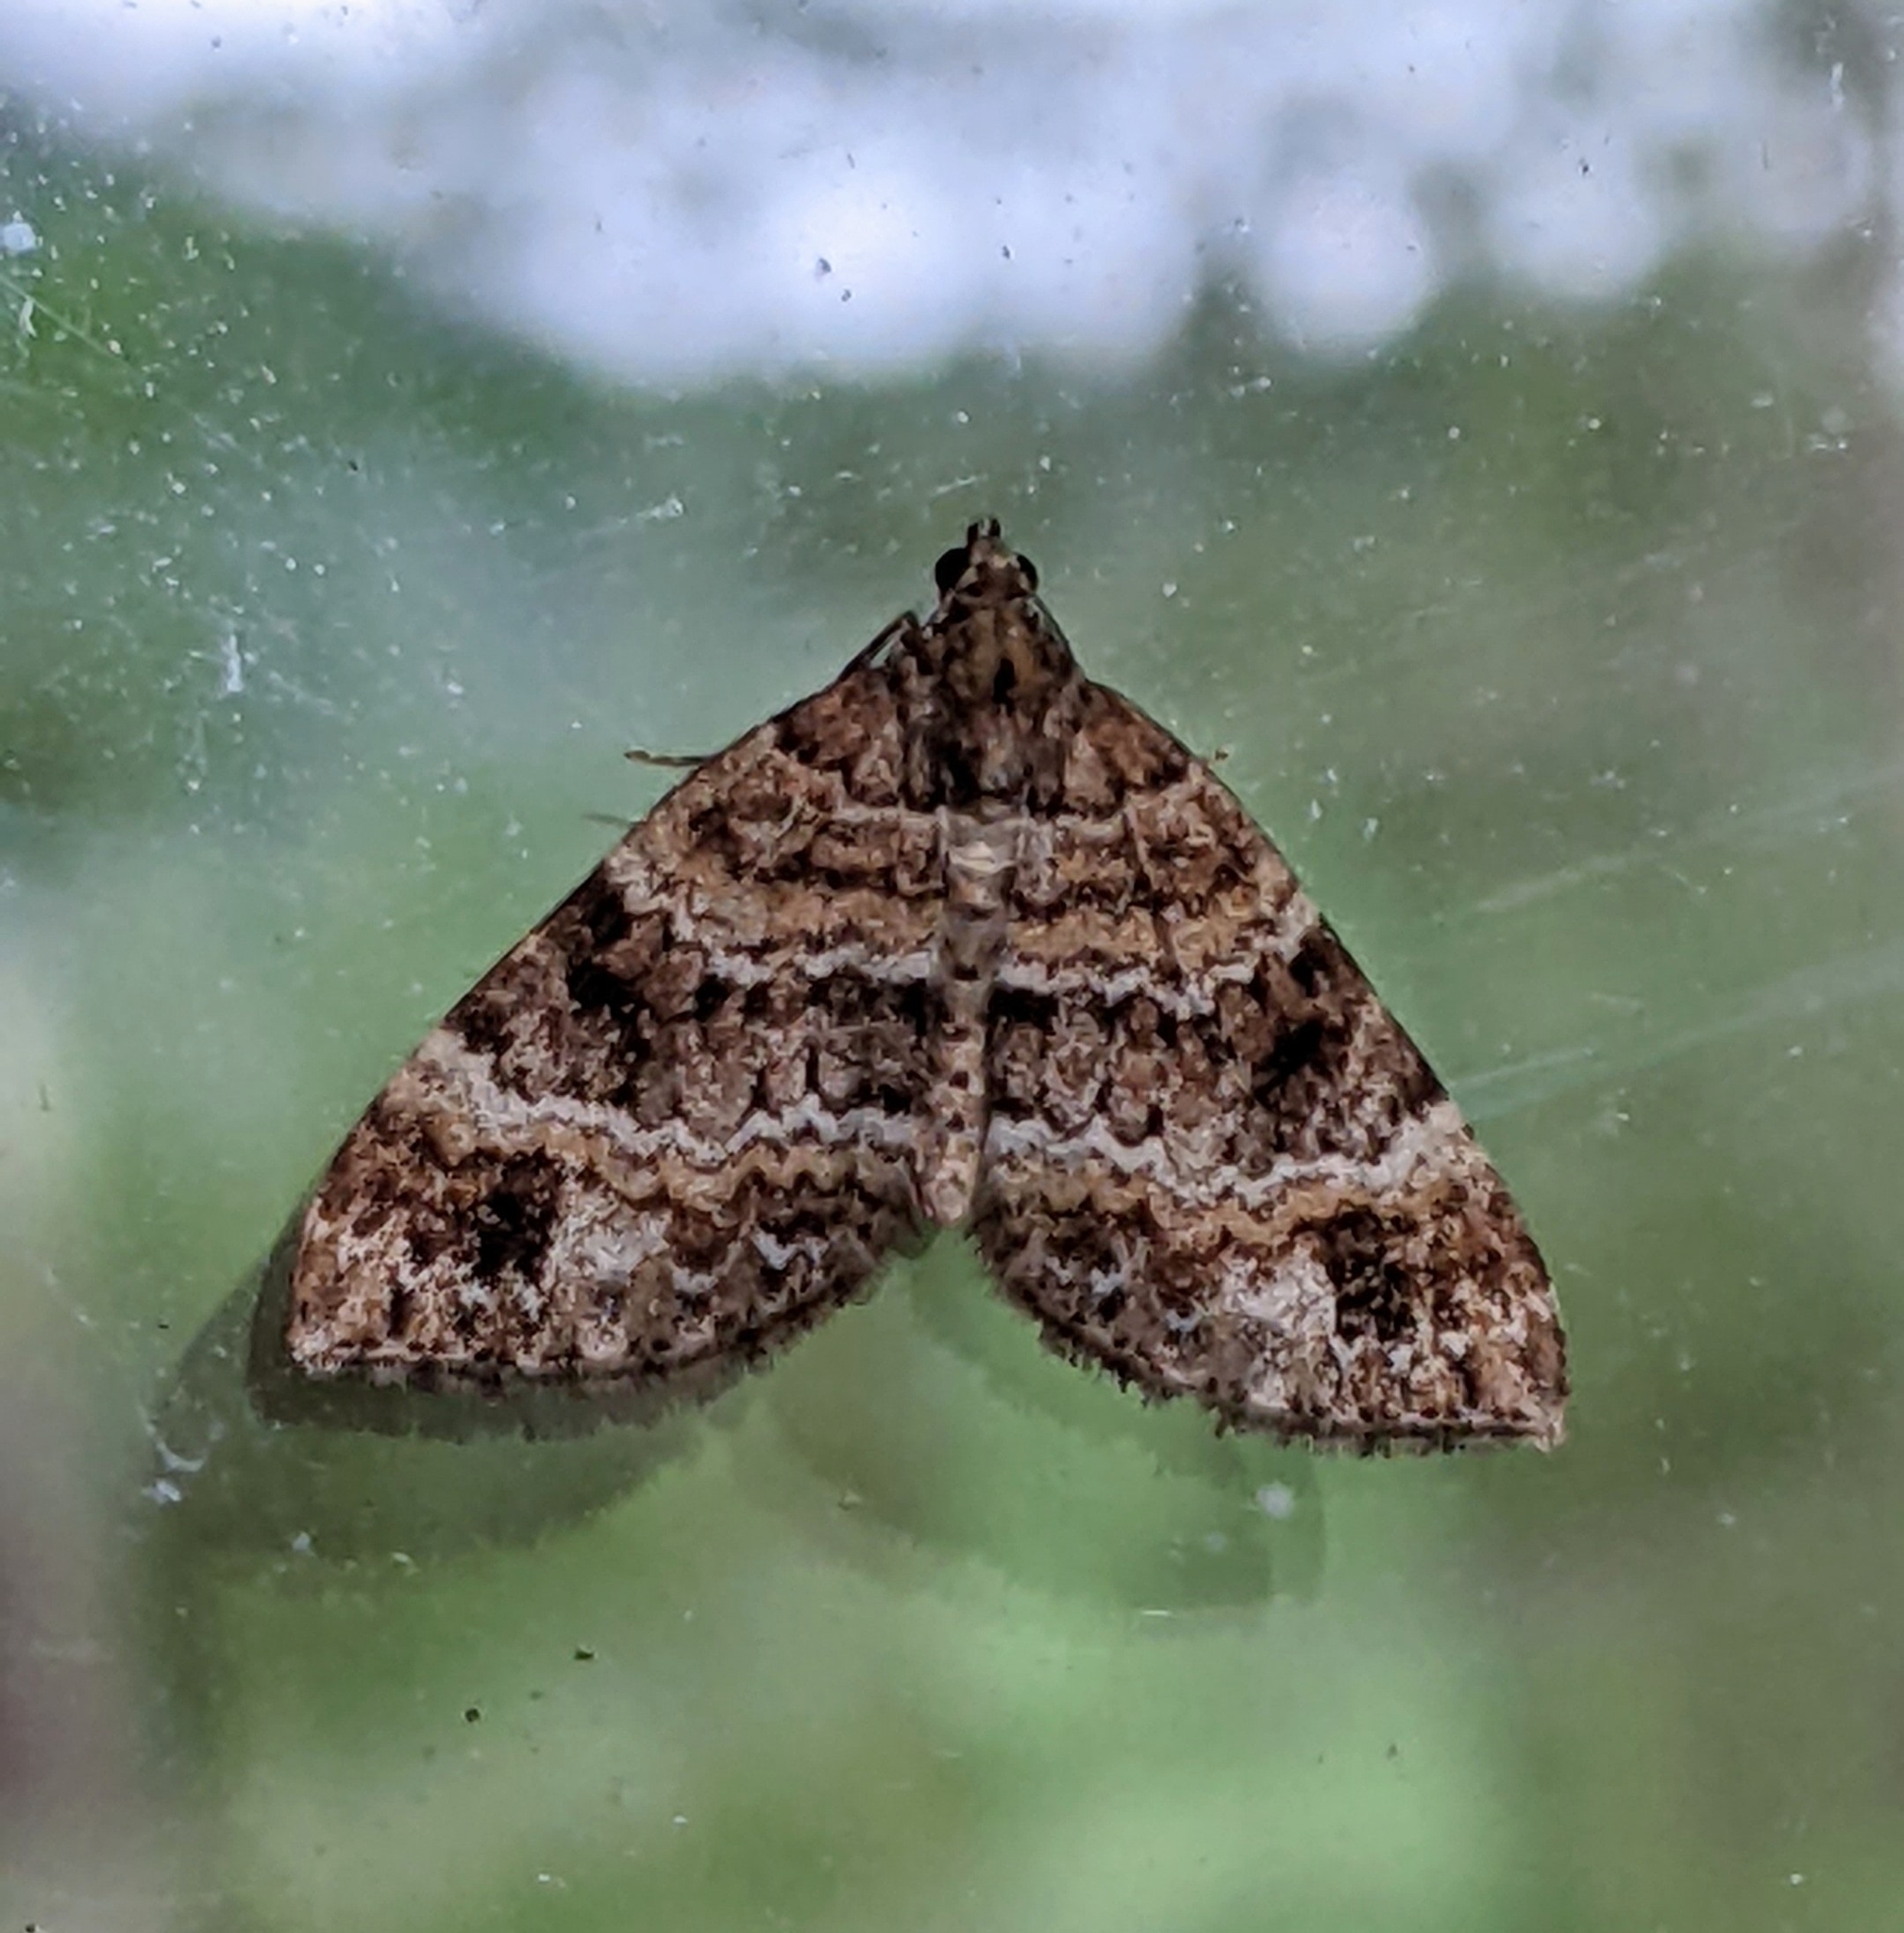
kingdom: Animalia
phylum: Arthropoda
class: Insecta
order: Lepidoptera
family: Geometridae
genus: Martania
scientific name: Martania
